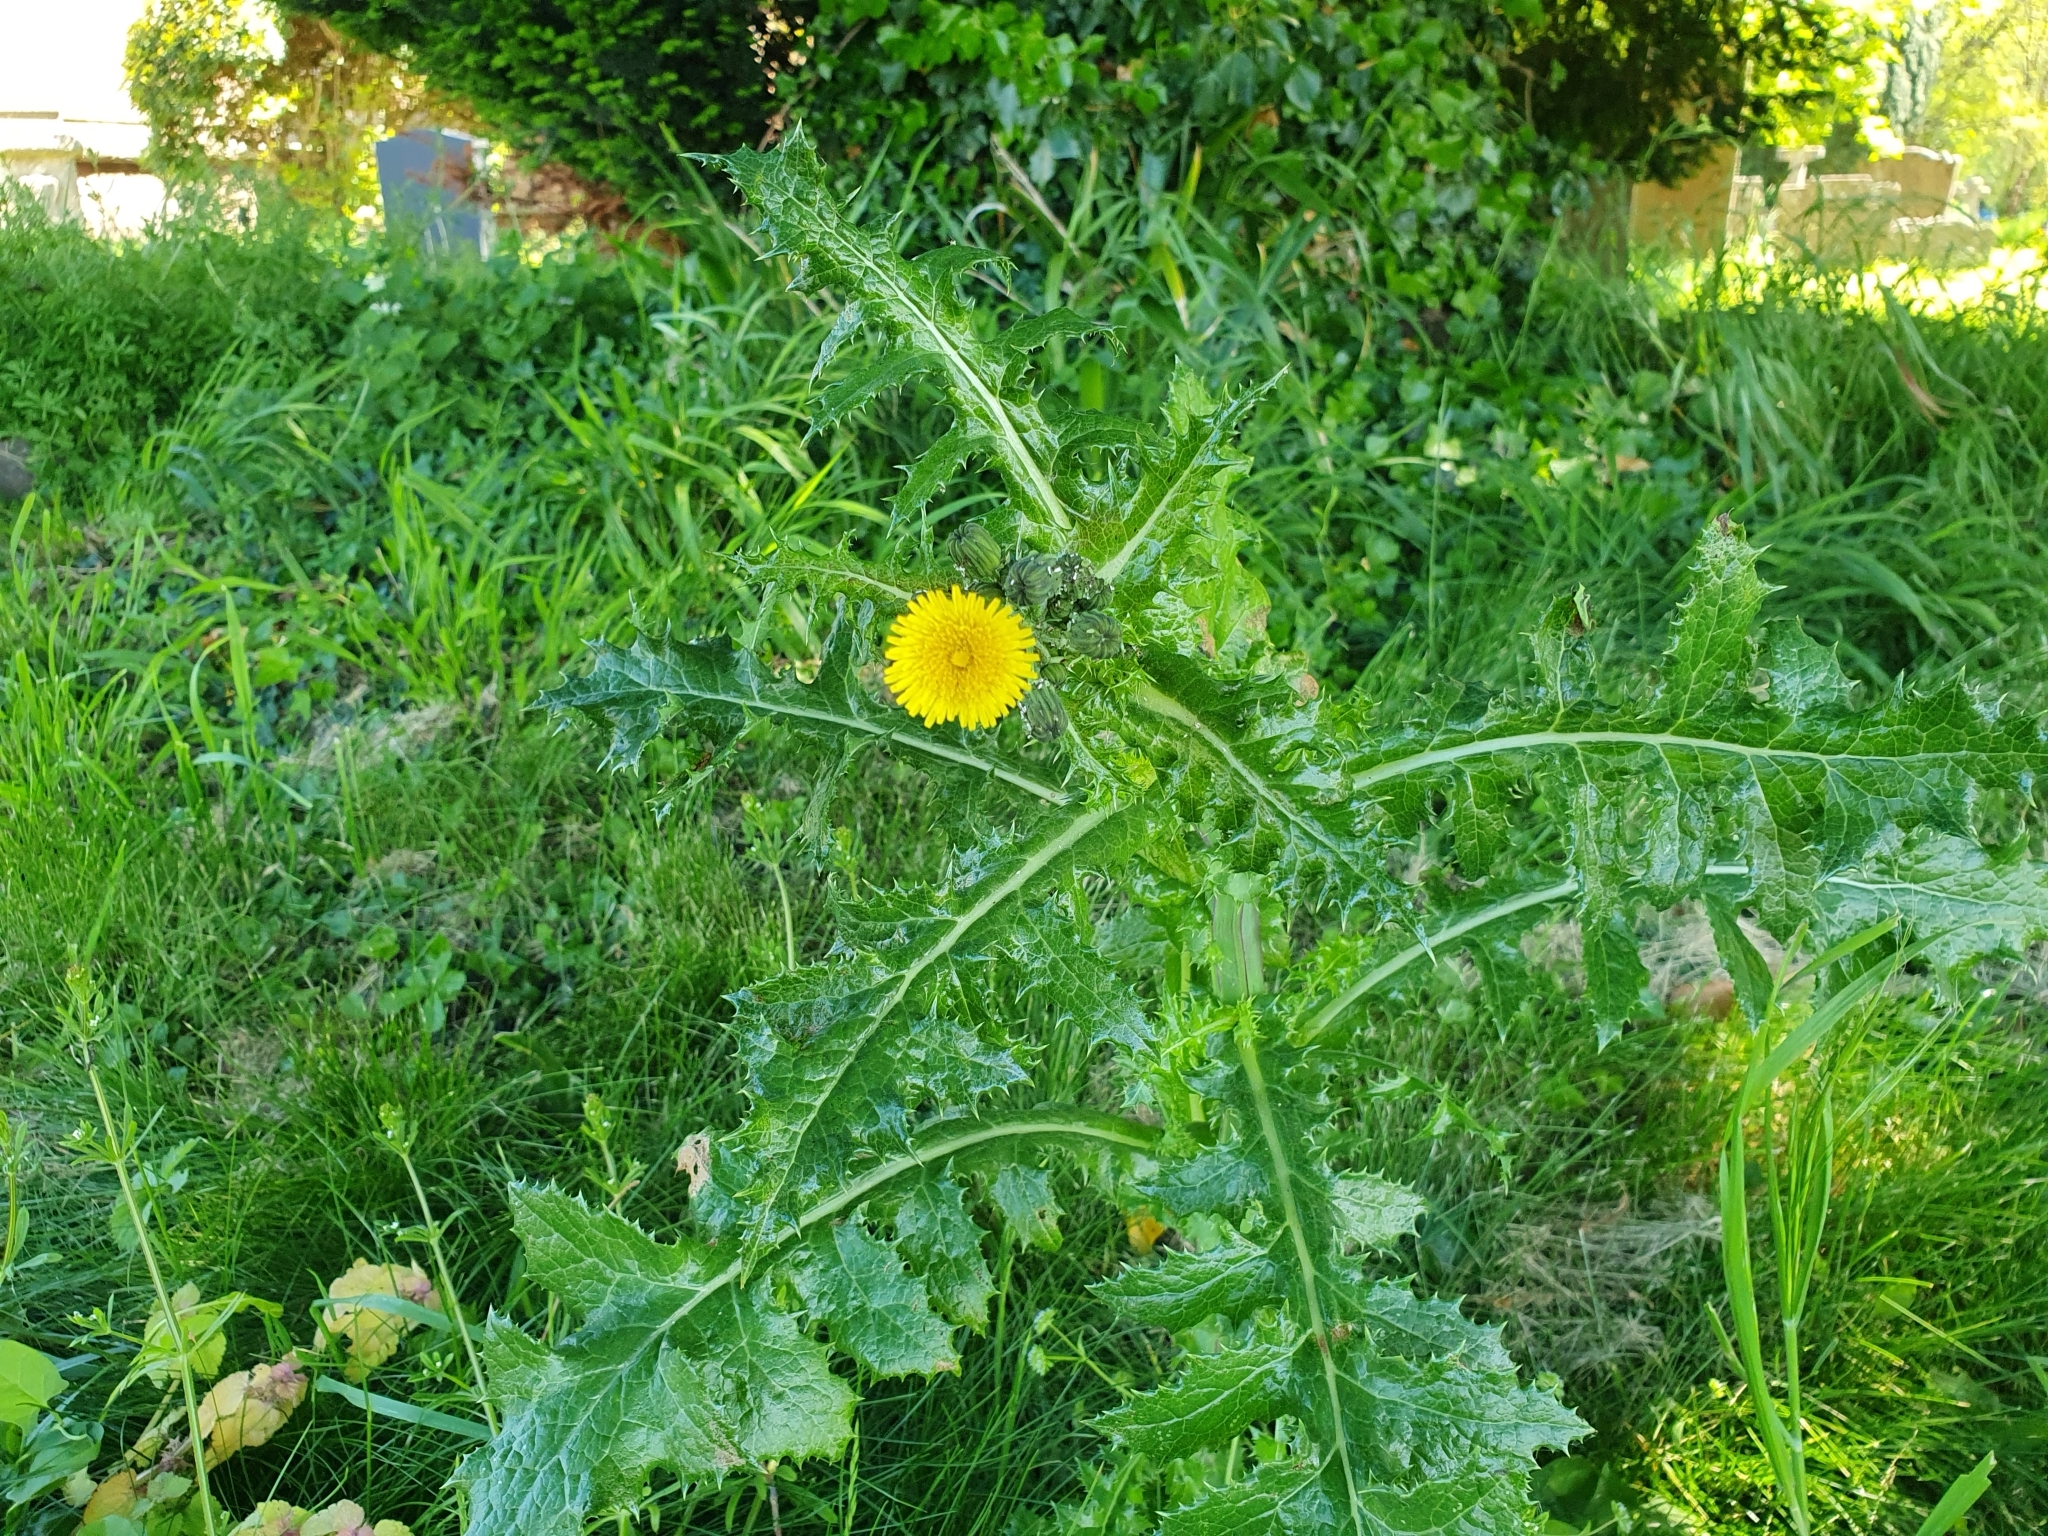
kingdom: Plantae
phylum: Tracheophyta
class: Magnoliopsida
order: Asterales
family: Asteraceae
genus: Sonchus
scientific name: Sonchus asper
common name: Prickly sow-thistle
